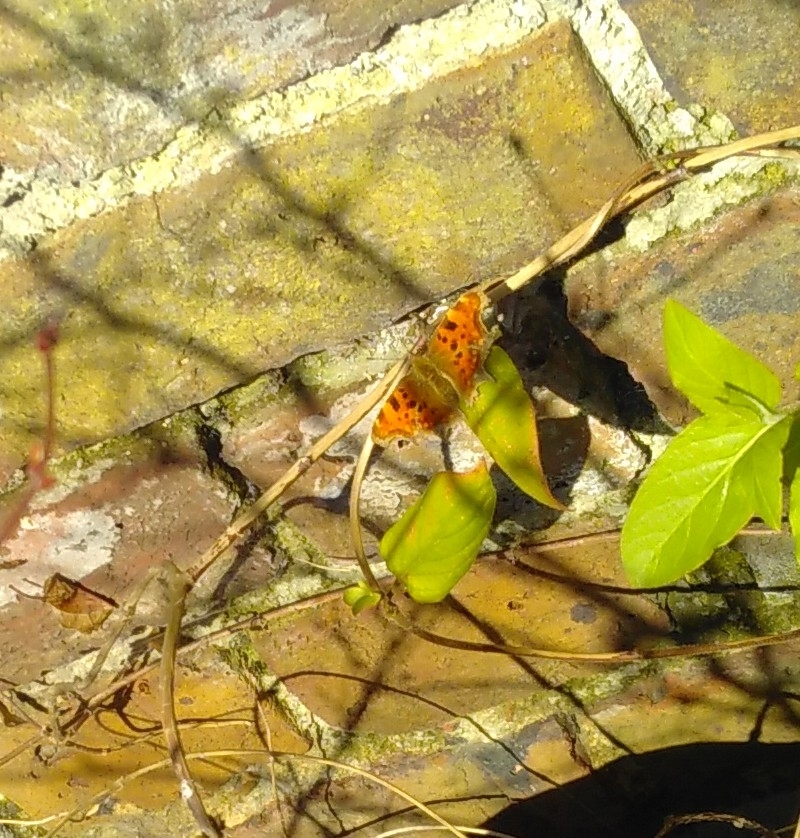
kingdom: Animalia
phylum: Arthropoda
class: Insecta
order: Lepidoptera
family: Nymphalidae
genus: Polygonia
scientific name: Polygonia c-album
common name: Comma
